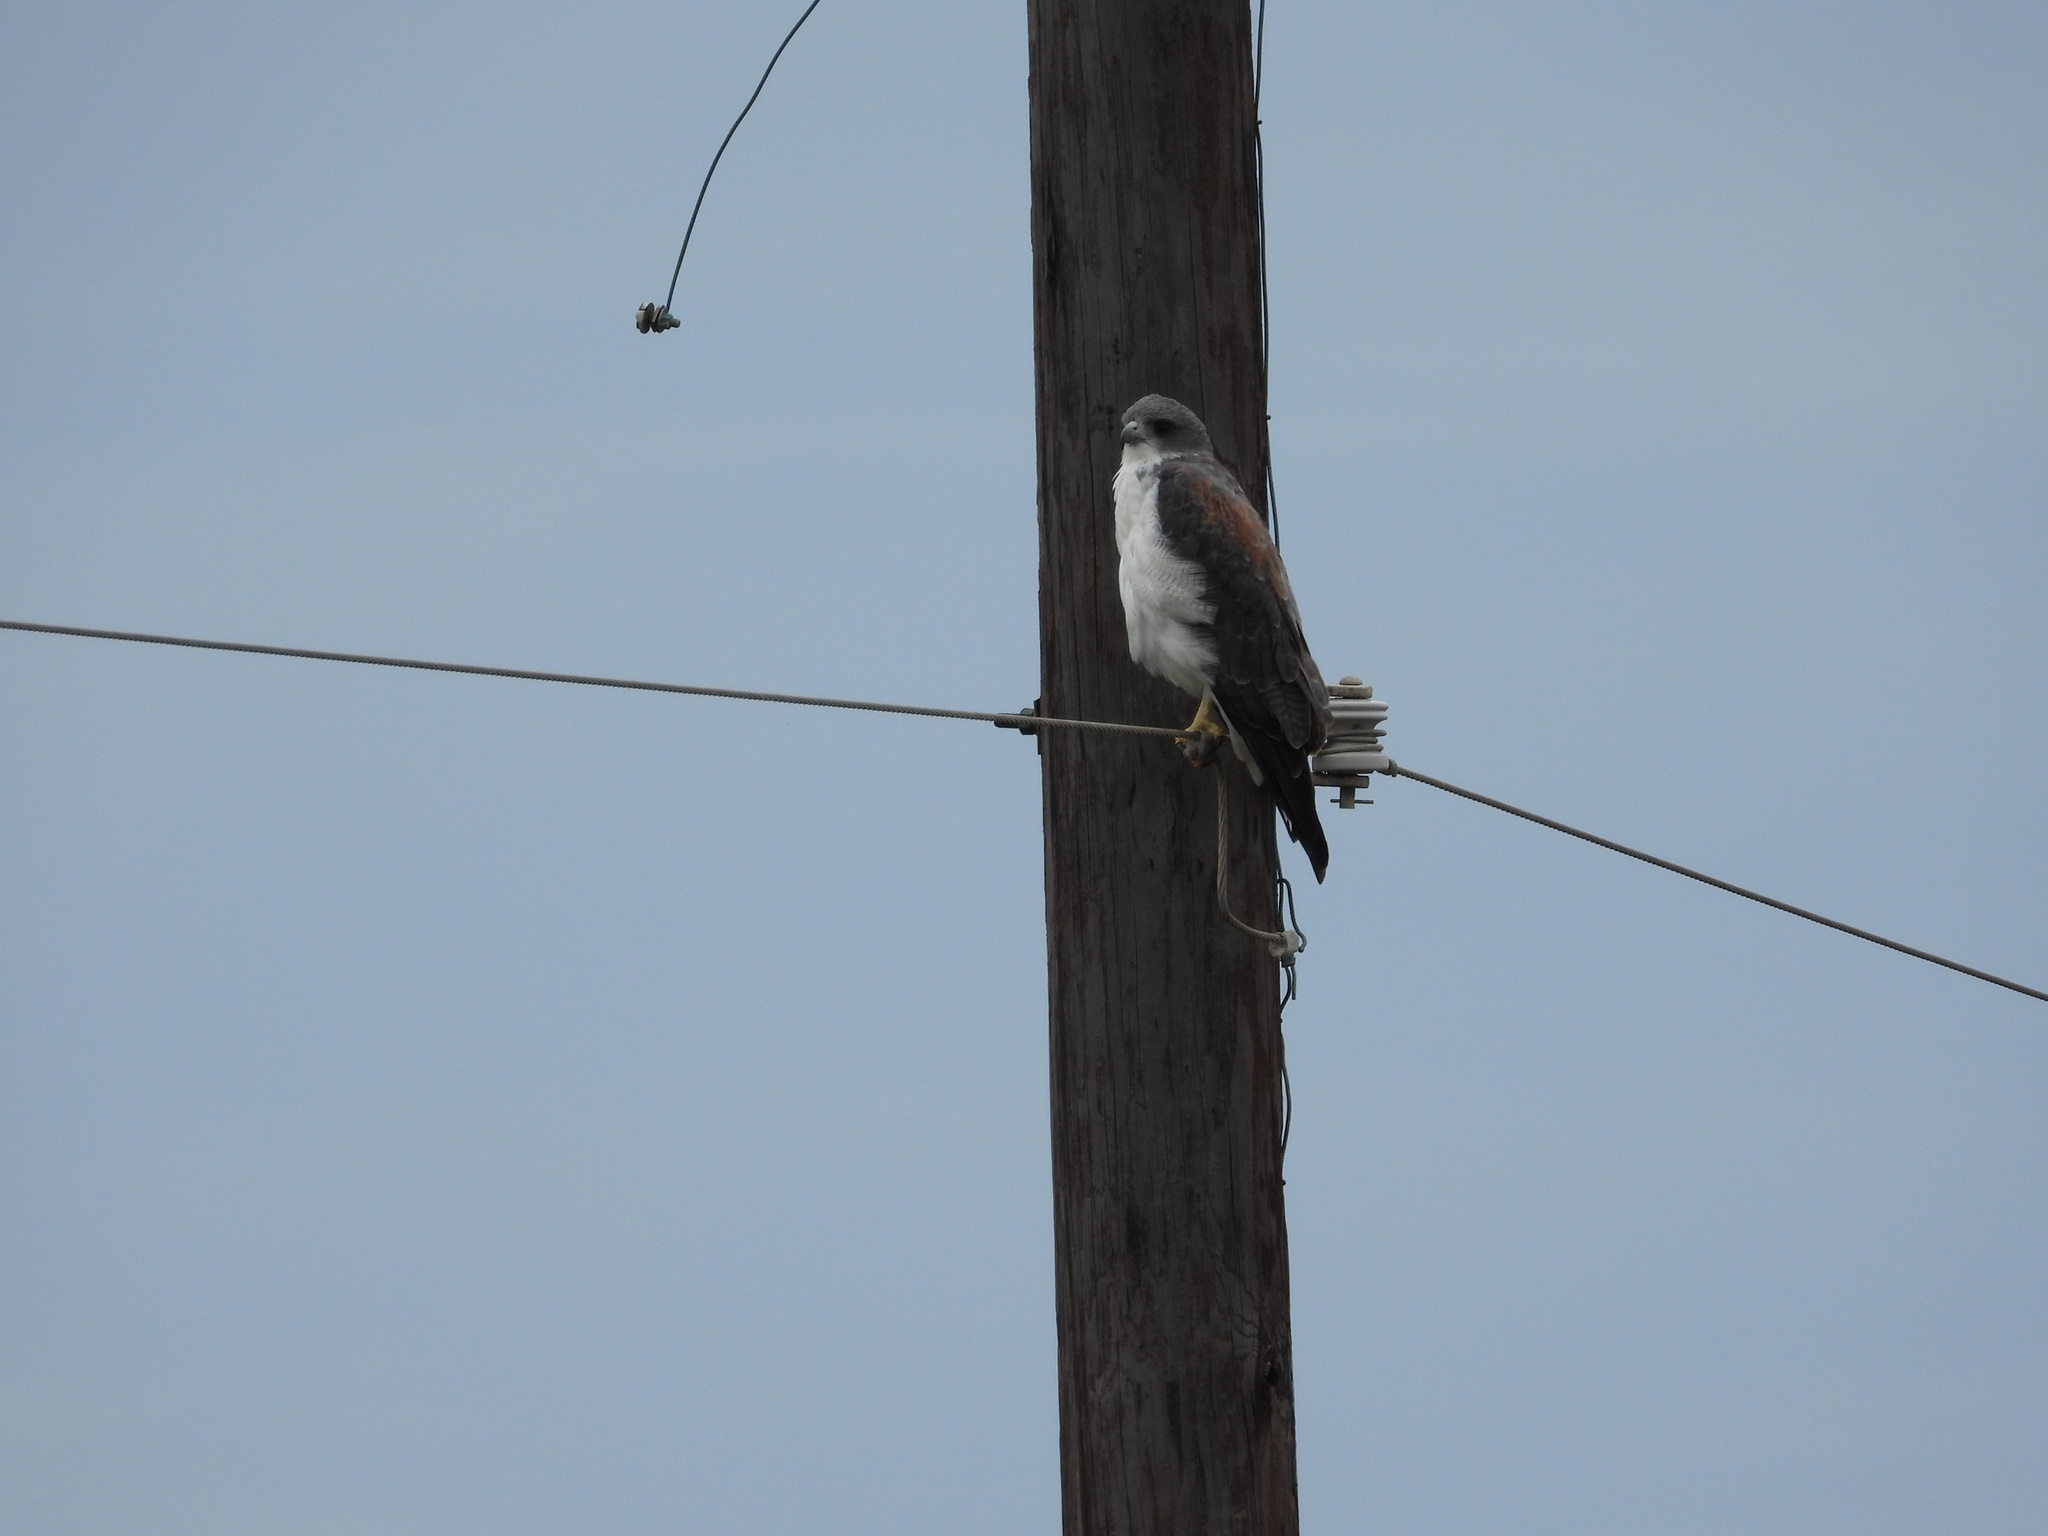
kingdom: Animalia
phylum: Chordata
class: Aves
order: Accipitriformes
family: Accipitridae
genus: Buteo
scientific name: Buteo albicaudatus
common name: White-tailed hawk
